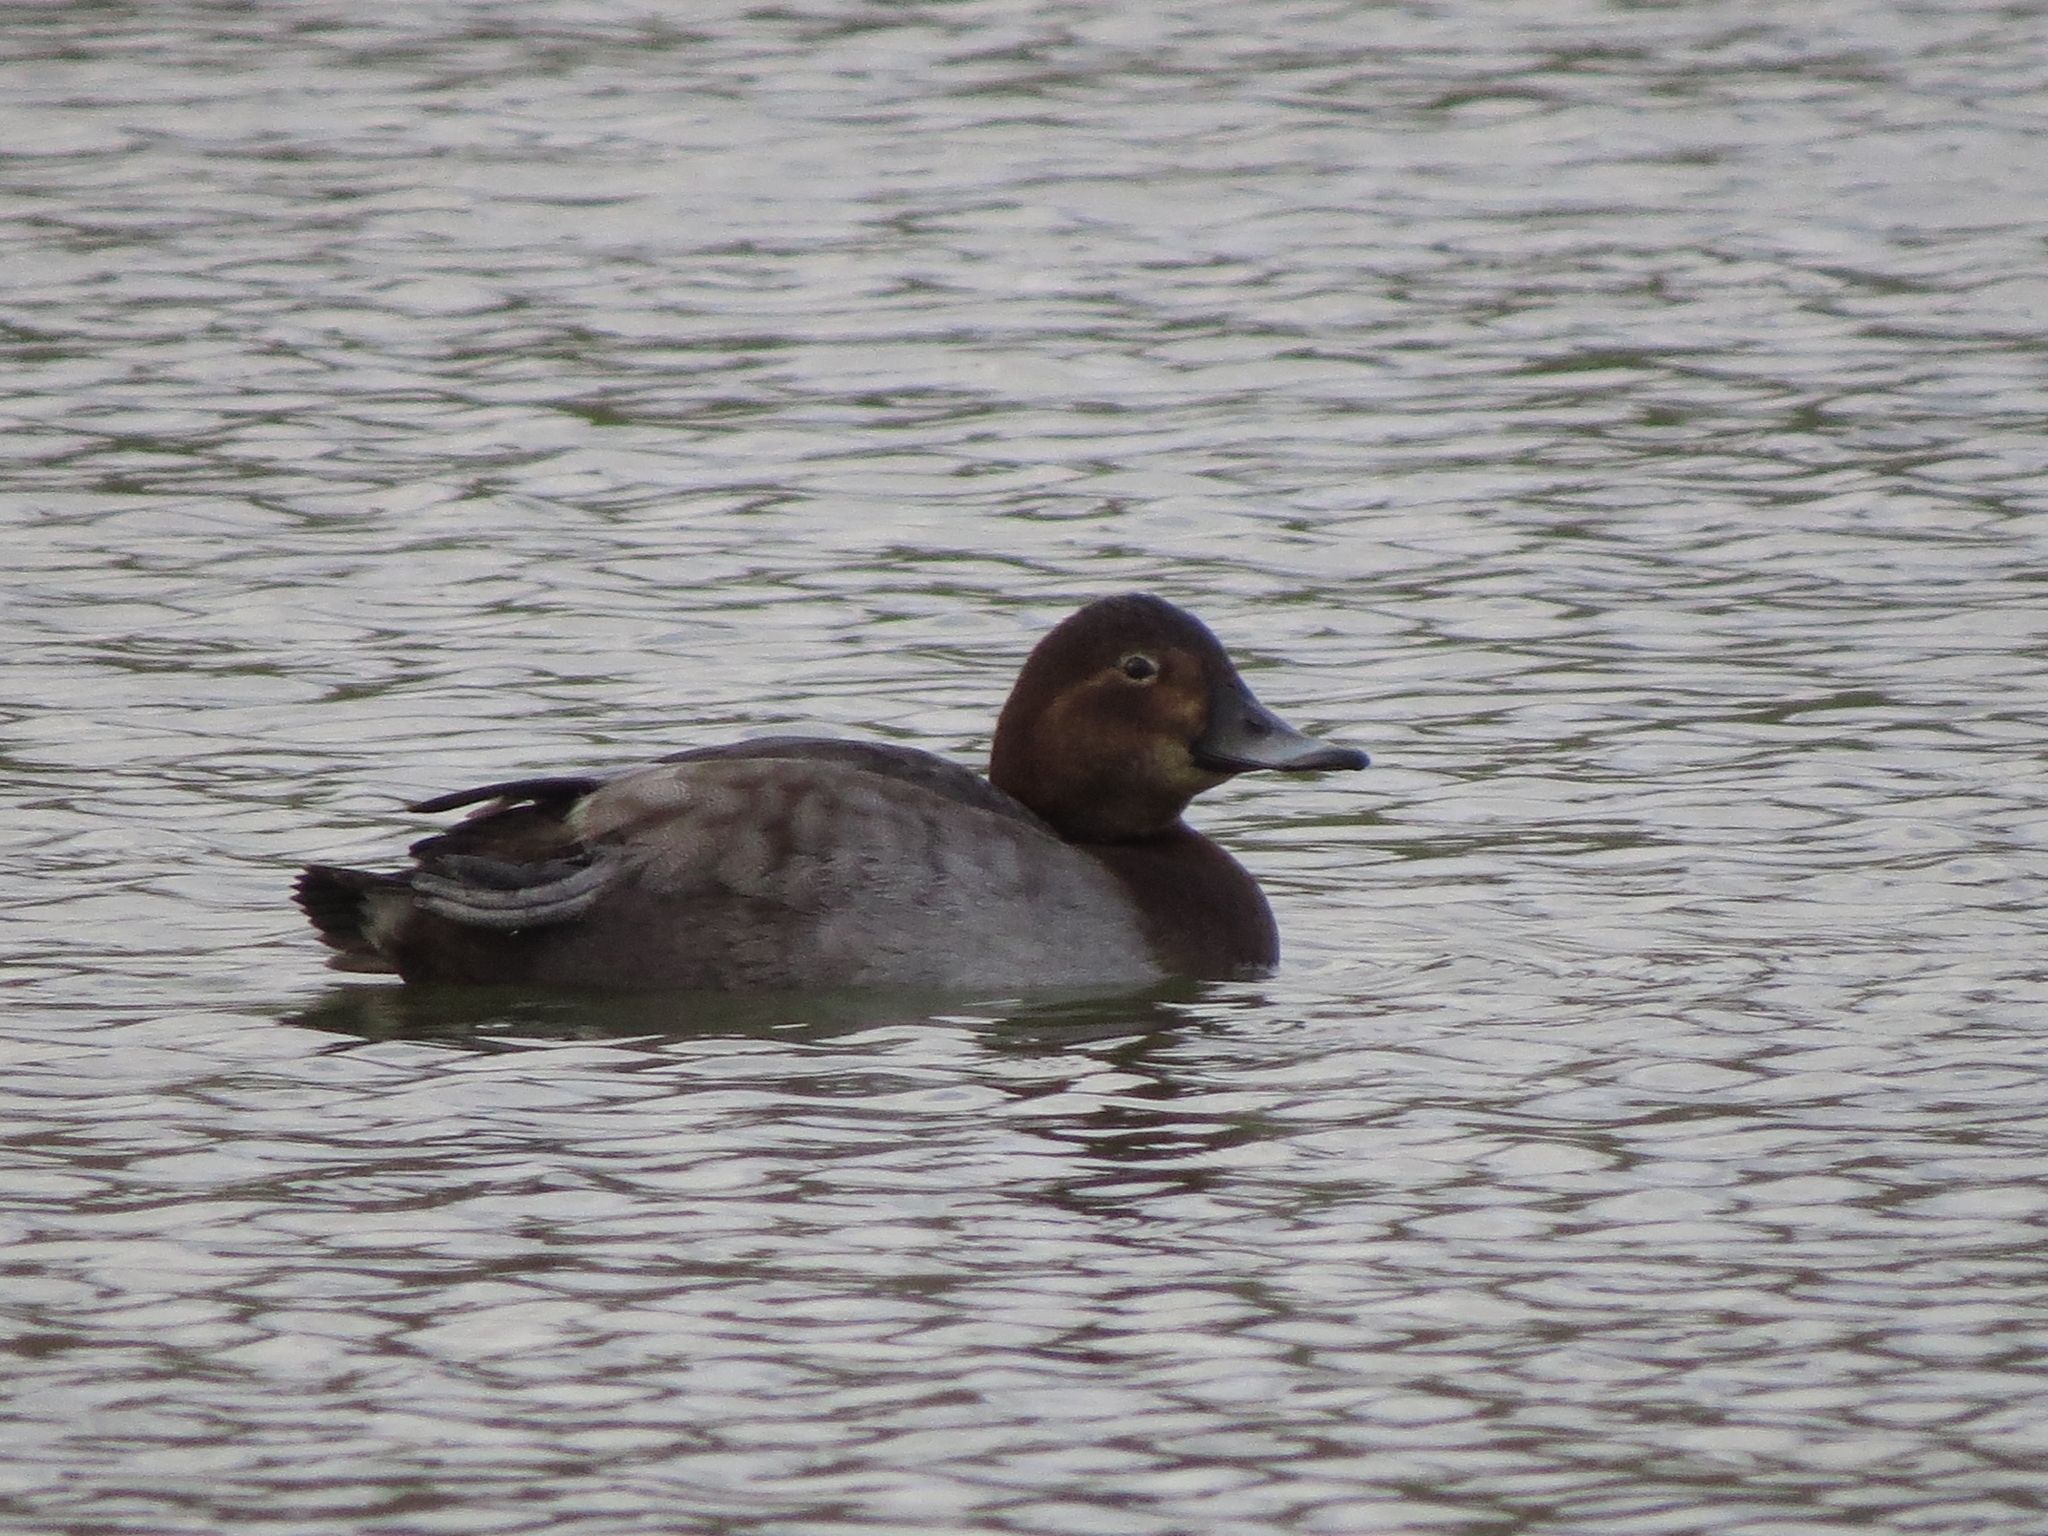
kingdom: Animalia
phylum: Chordata
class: Aves
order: Anseriformes
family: Anatidae
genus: Aythya
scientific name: Aythya ferina
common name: Common pochard
